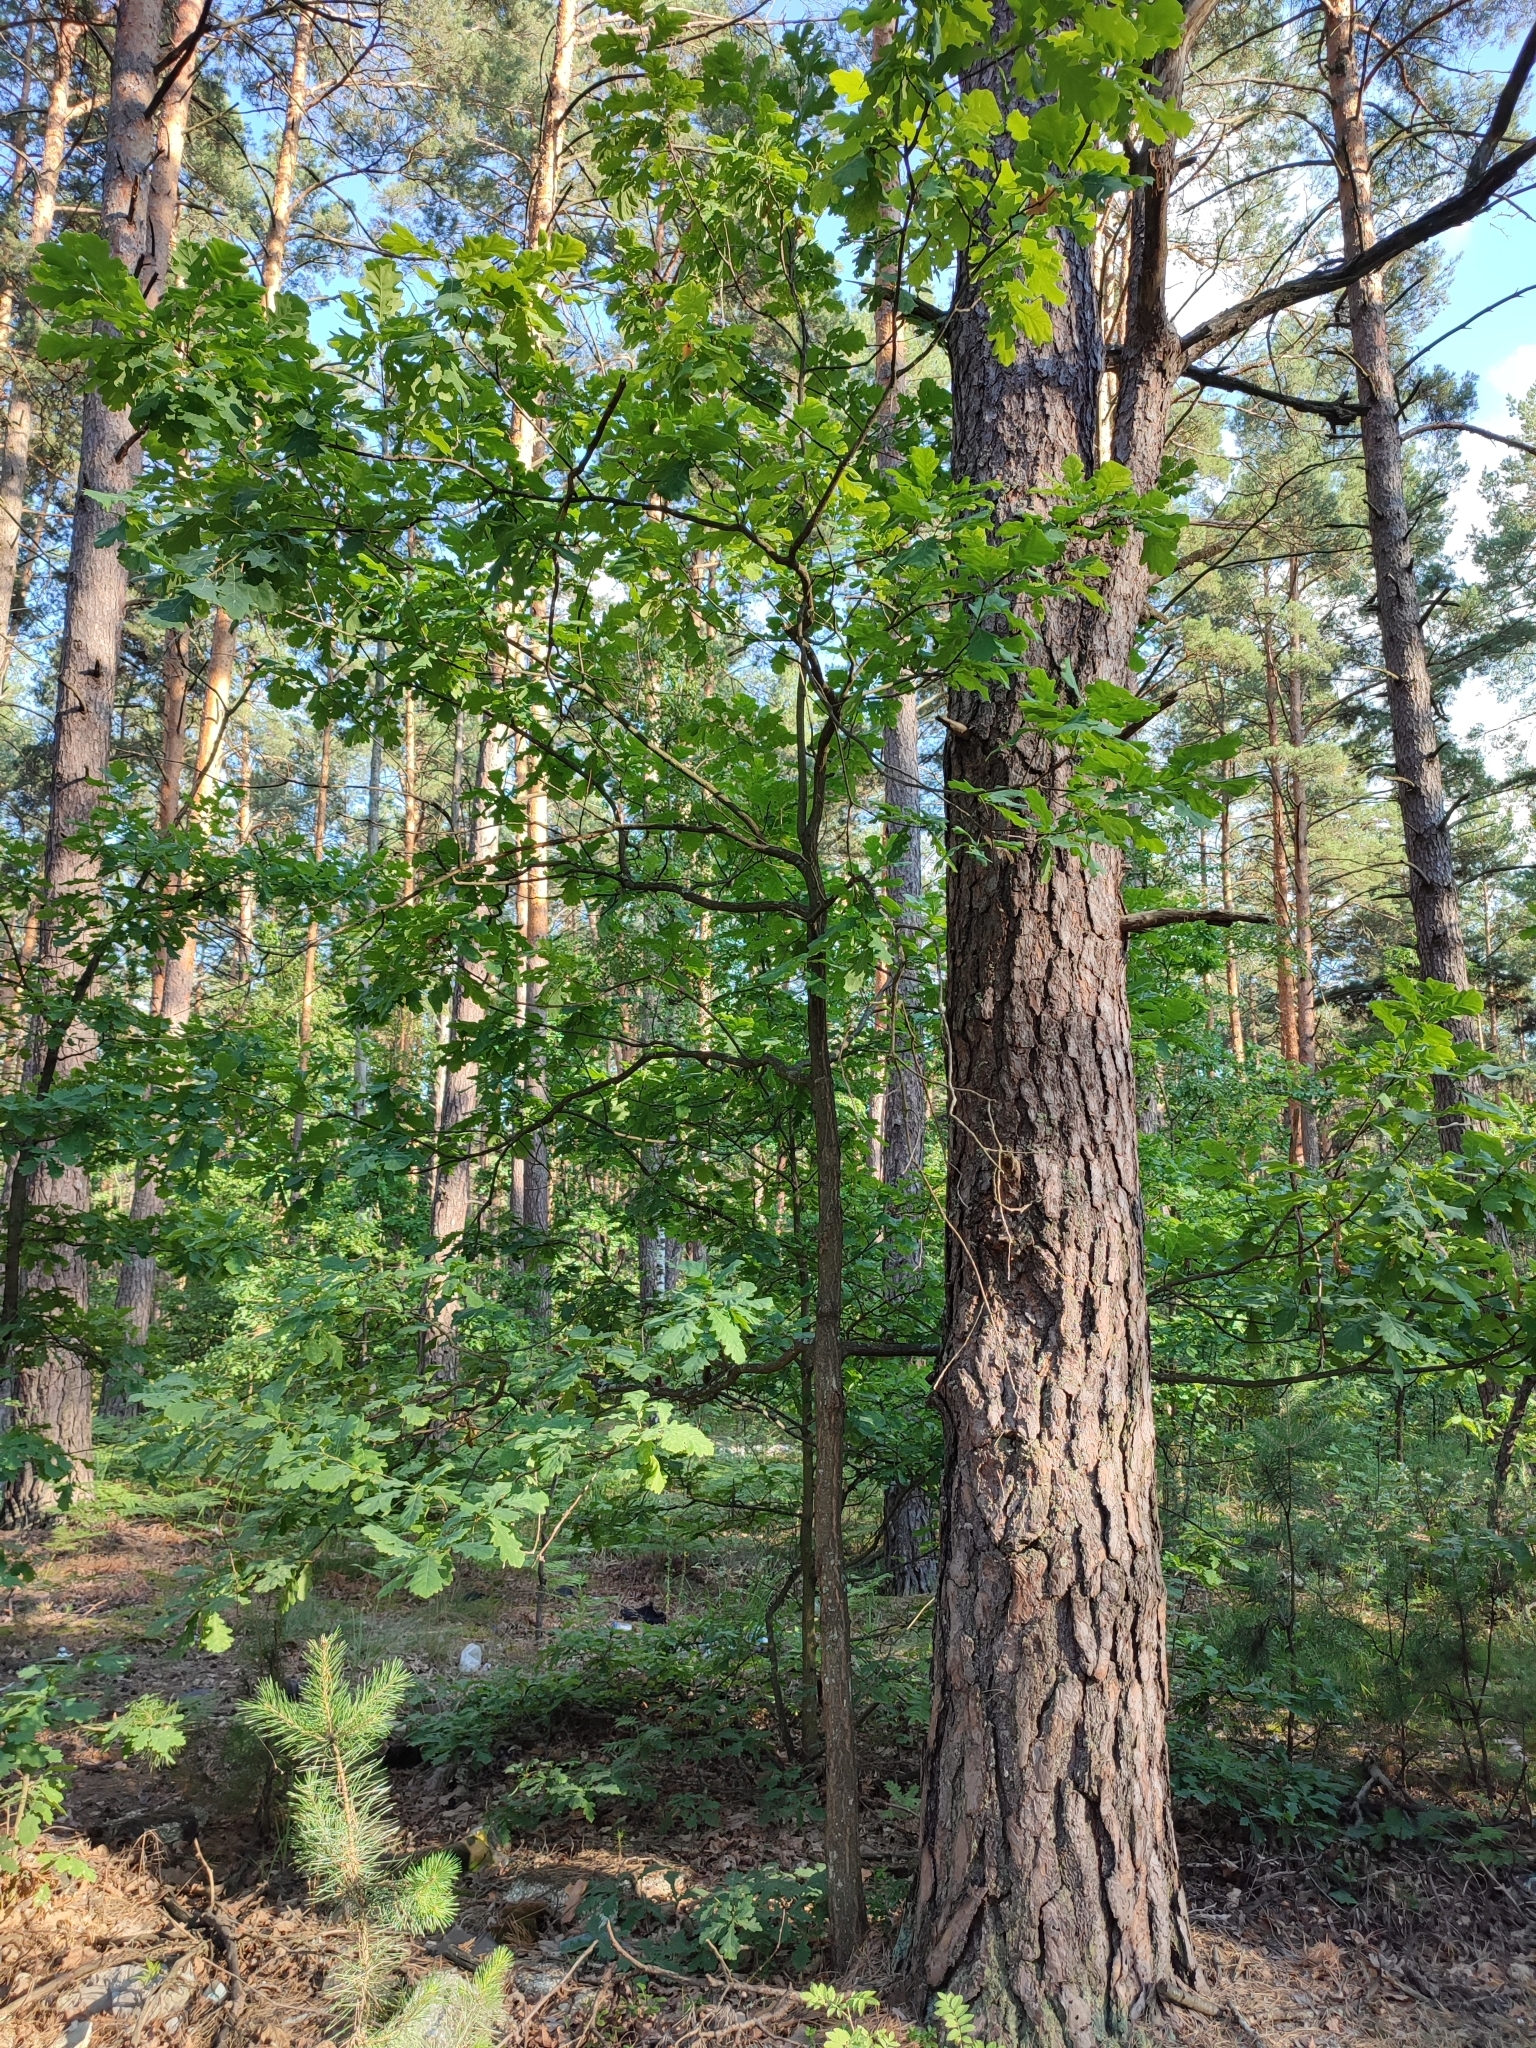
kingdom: Plantae
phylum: Tracheophyta
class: Magnoliopsida
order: Fagales
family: Fagaceae
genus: Quercus
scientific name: Quercus robur
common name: Pedunculate oak
